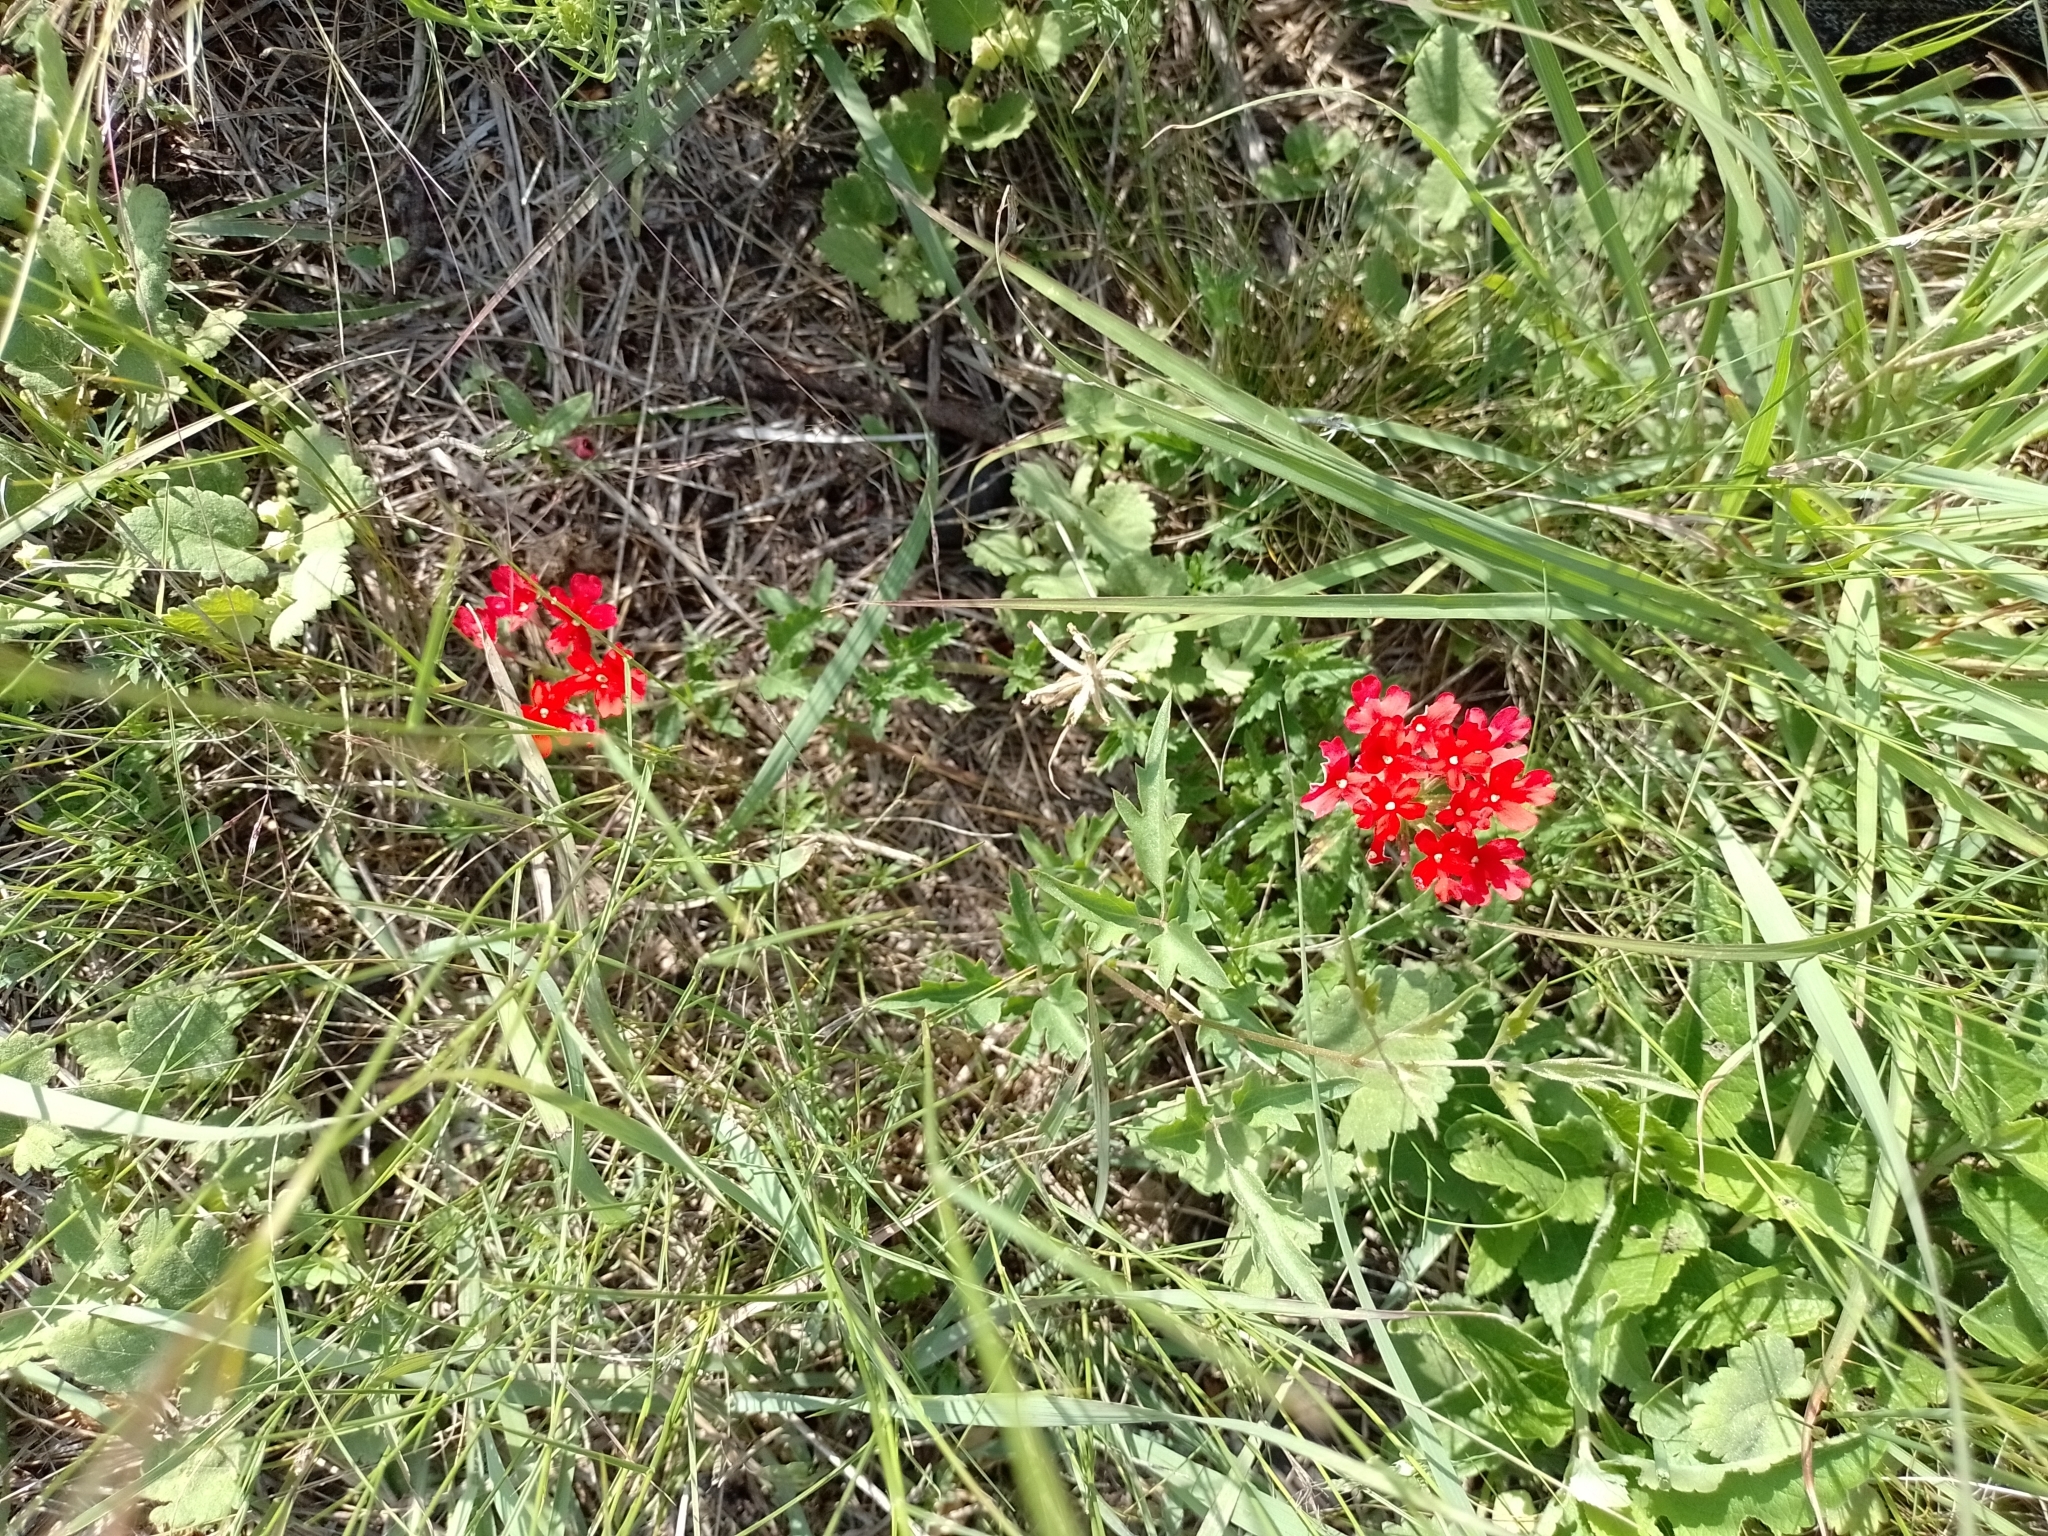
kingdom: Plantae
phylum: Tracheophyta
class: Magnoliopsida
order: Lamiales
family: Verbenaceae
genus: Verbena
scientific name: Verbena peruviana
